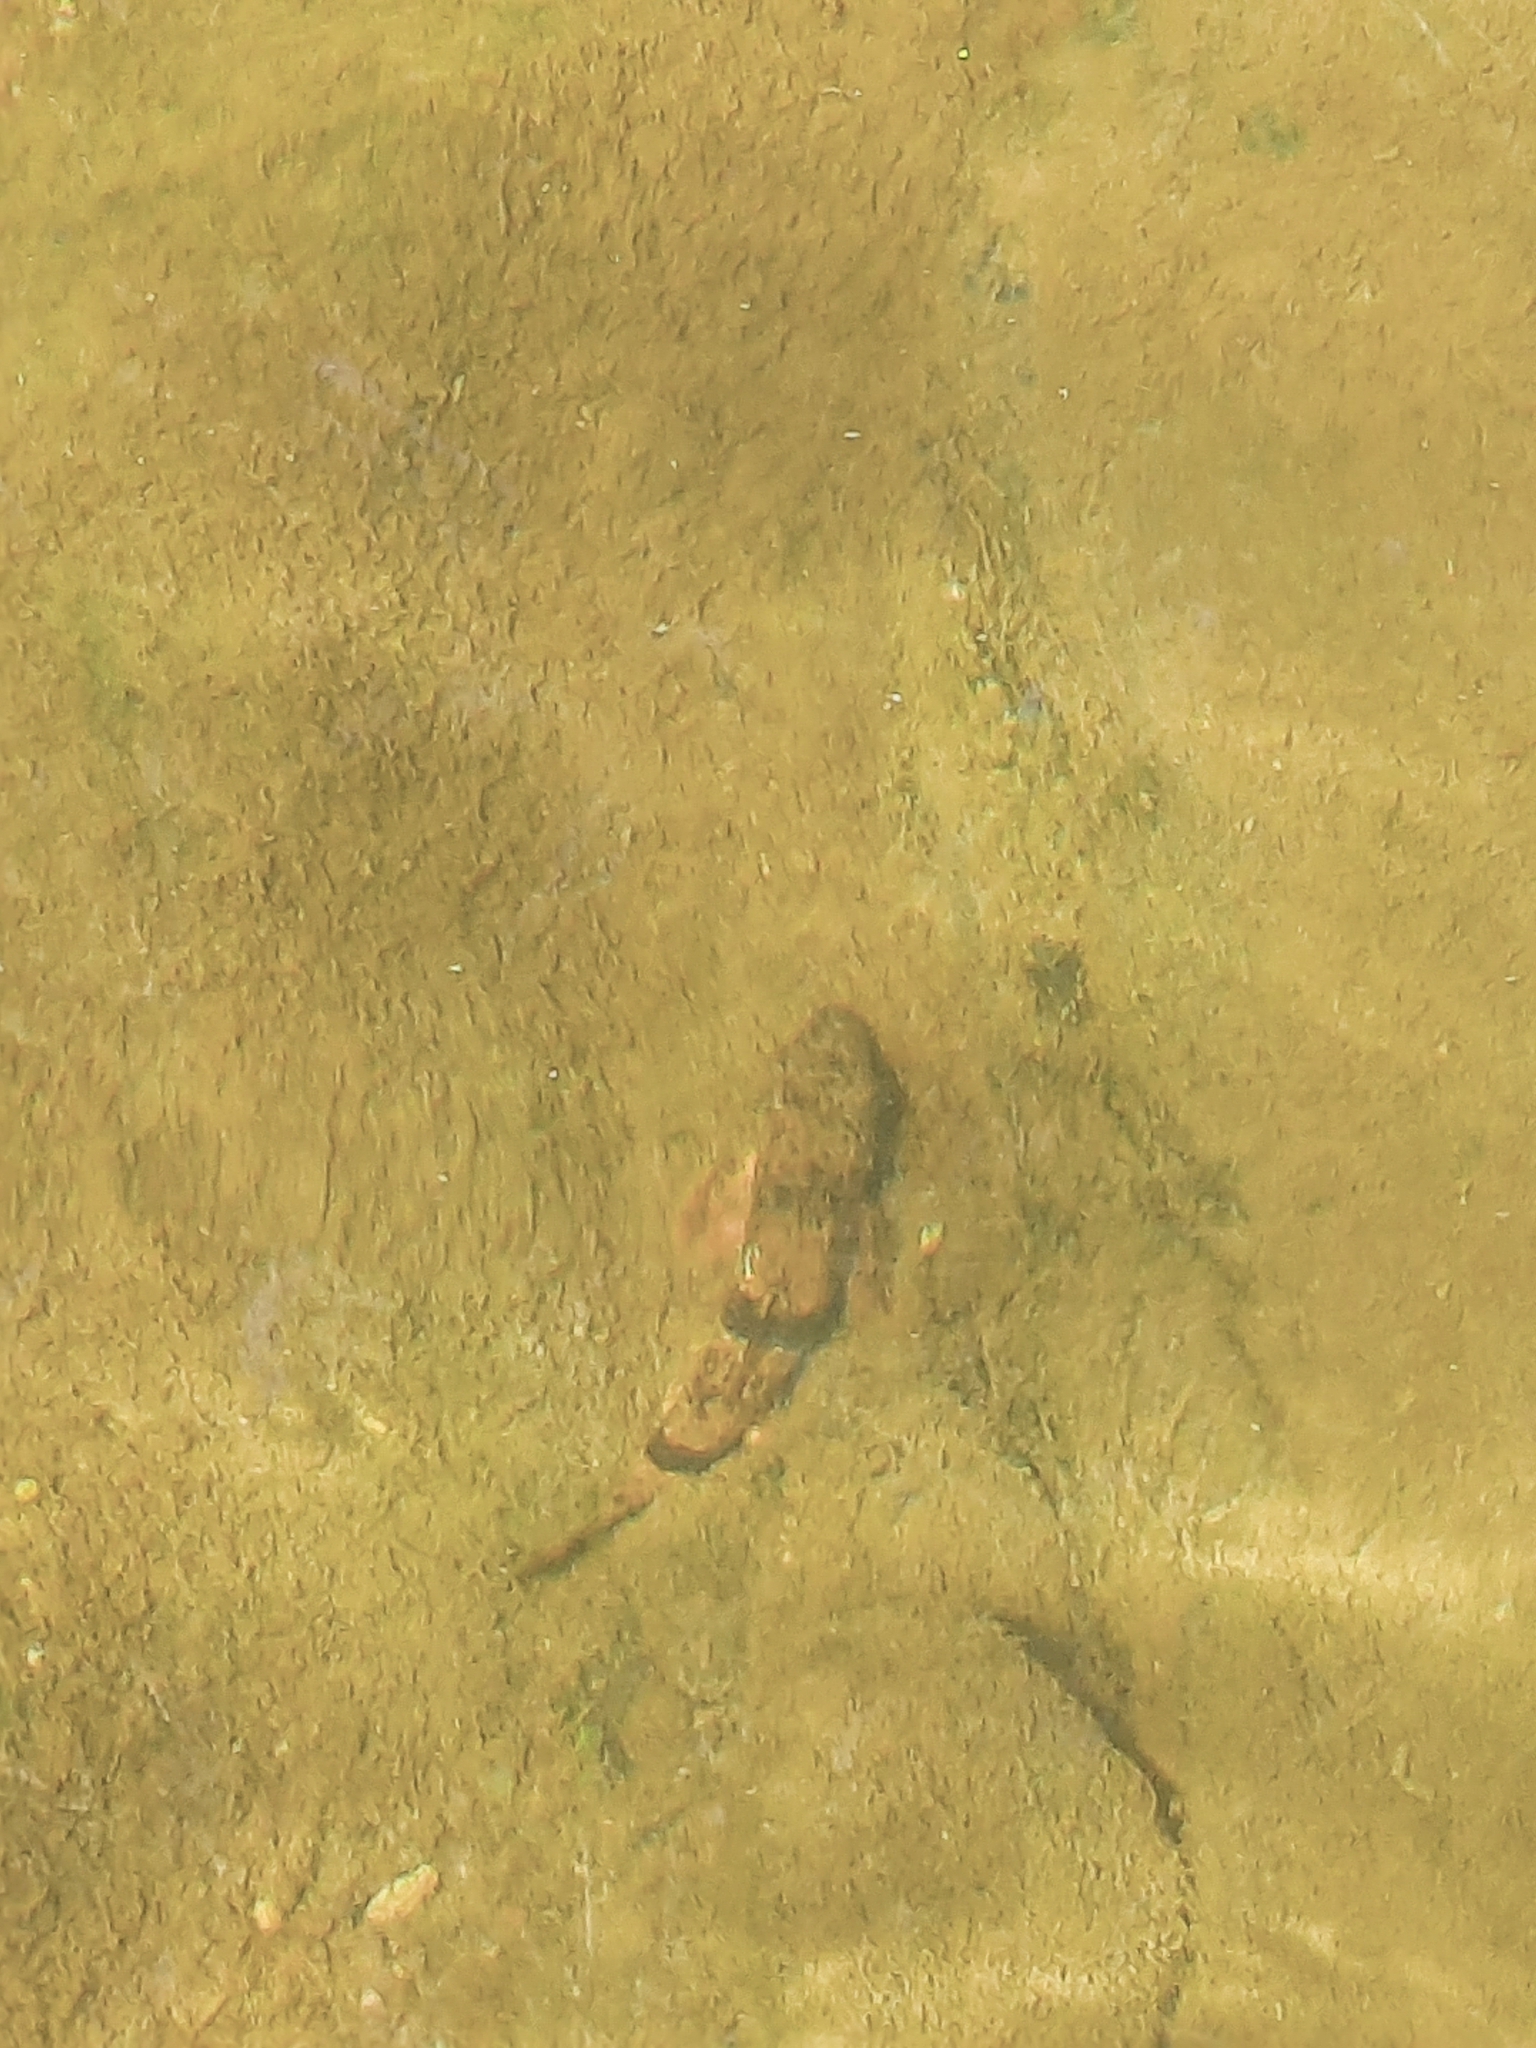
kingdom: Animalia
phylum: Chordata
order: Cypriniformes
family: Catostomidae
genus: Hypentelium
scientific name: Hypentelium nigricans
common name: Northern hog sucker
